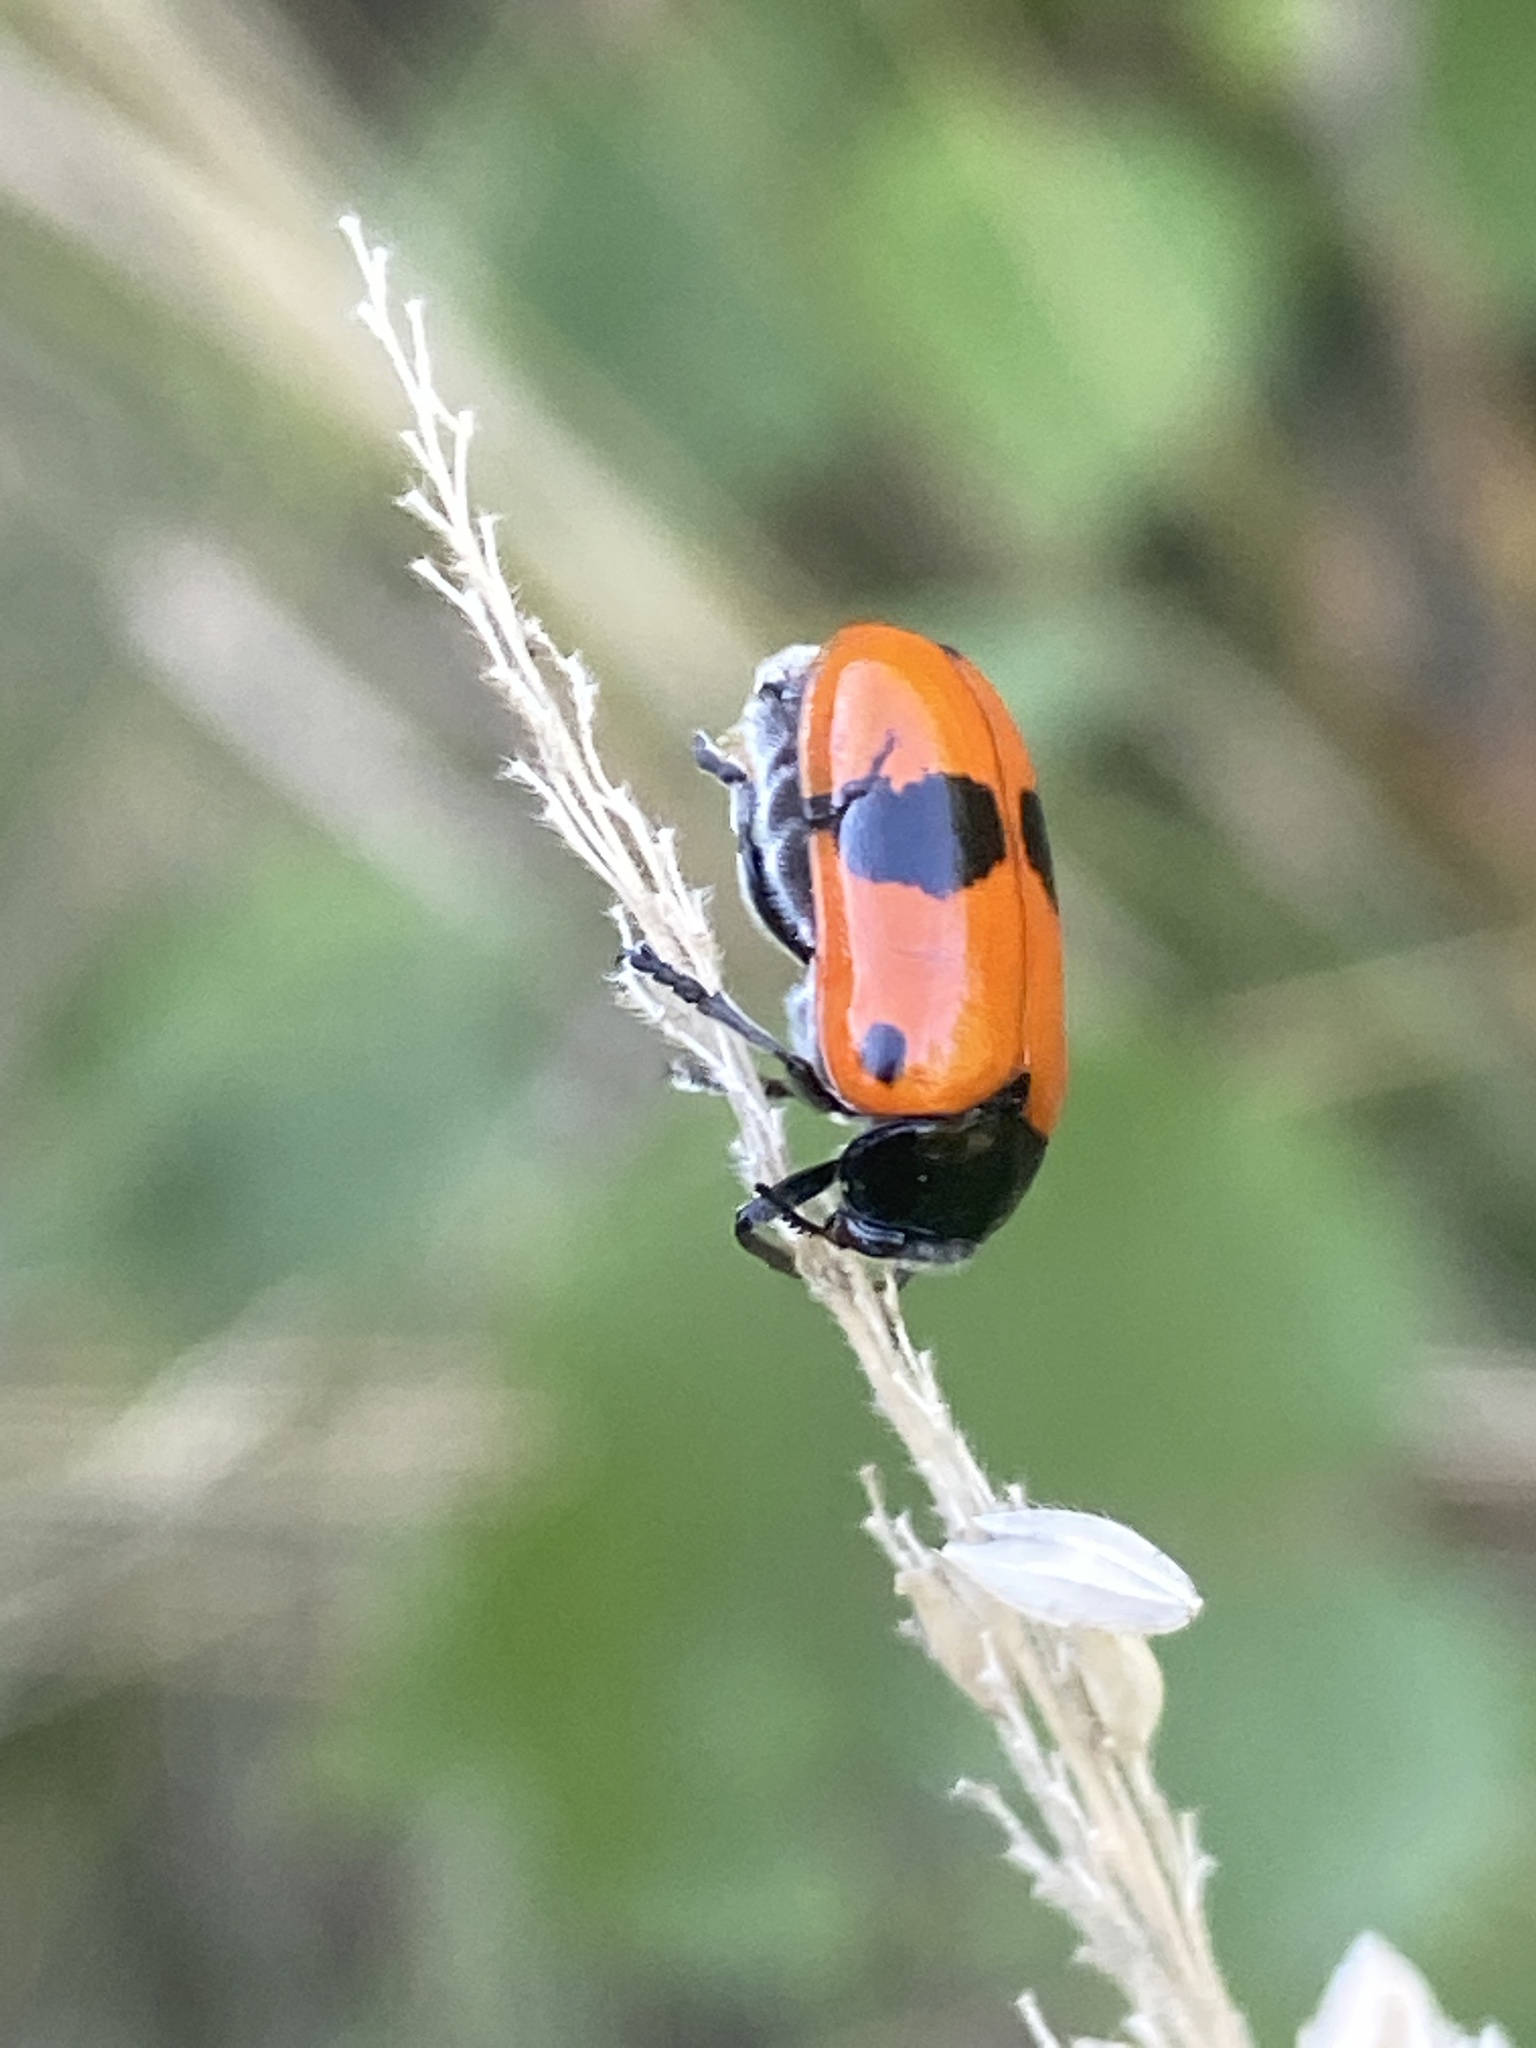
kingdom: Animalia
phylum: Arthropoda
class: Insecta
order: Coleoptera
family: Chrysomelidae
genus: Clytra
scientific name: Clytra laeviuscula
